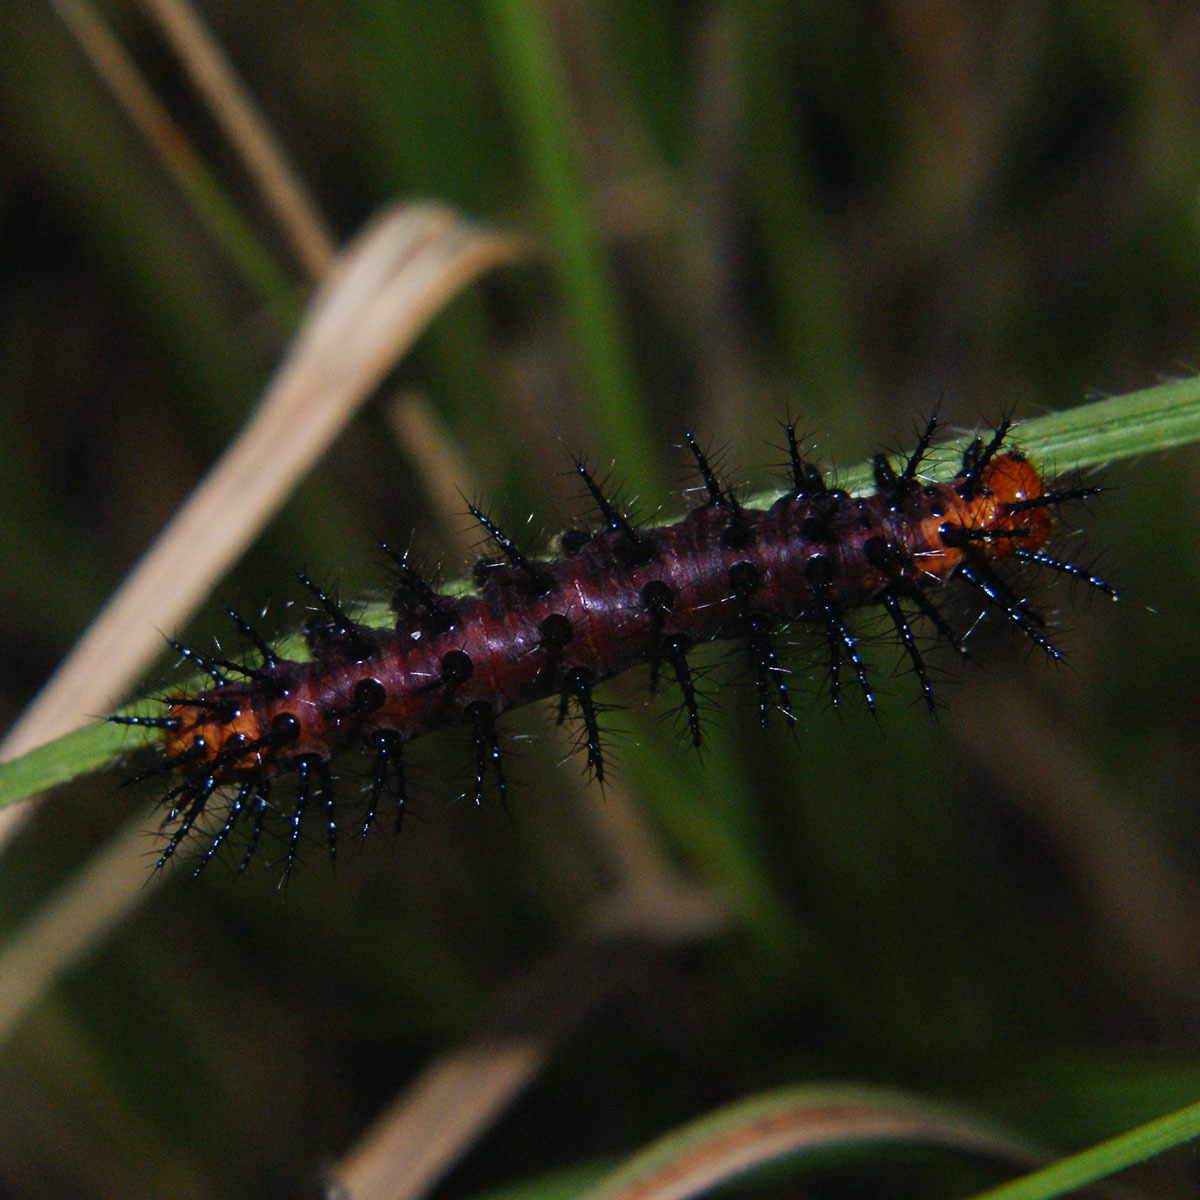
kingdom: Animalia
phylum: Arthropoda
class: Insecta
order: Lepidoptera
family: Nymphalidae
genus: Acraea
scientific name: Acraea terpsicore
